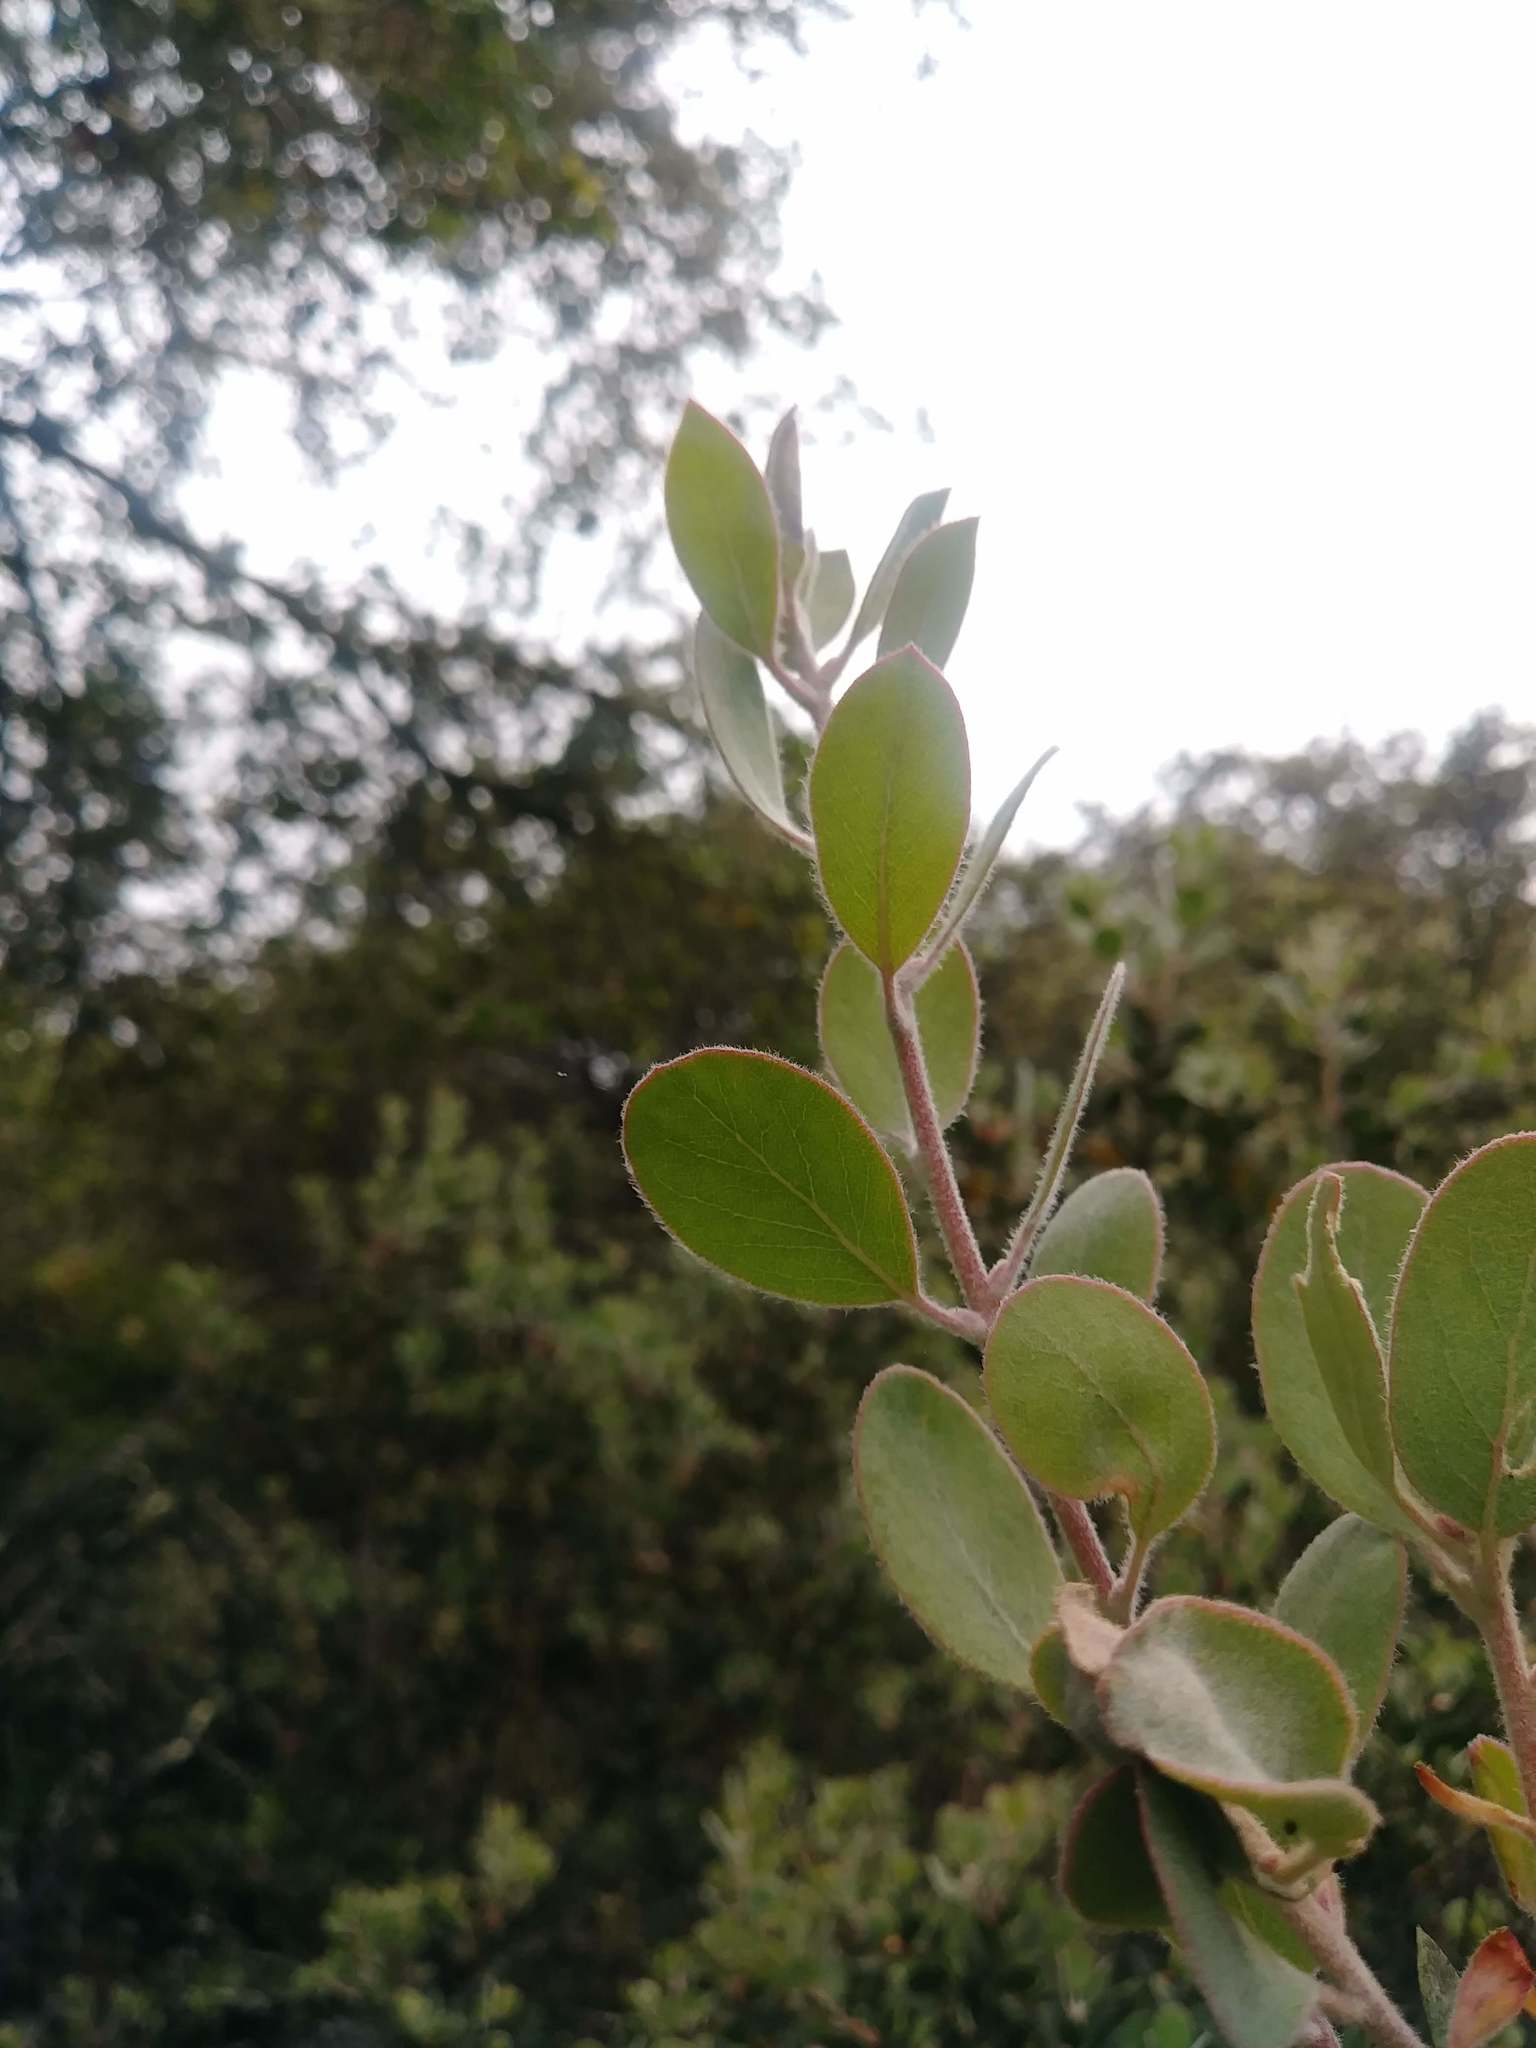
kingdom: Plantae
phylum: Tracheophyta
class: Magnoliopsida
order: Ericales
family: Ericaceae
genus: Arctostaphylos
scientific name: Arctostaphylos silvicola
